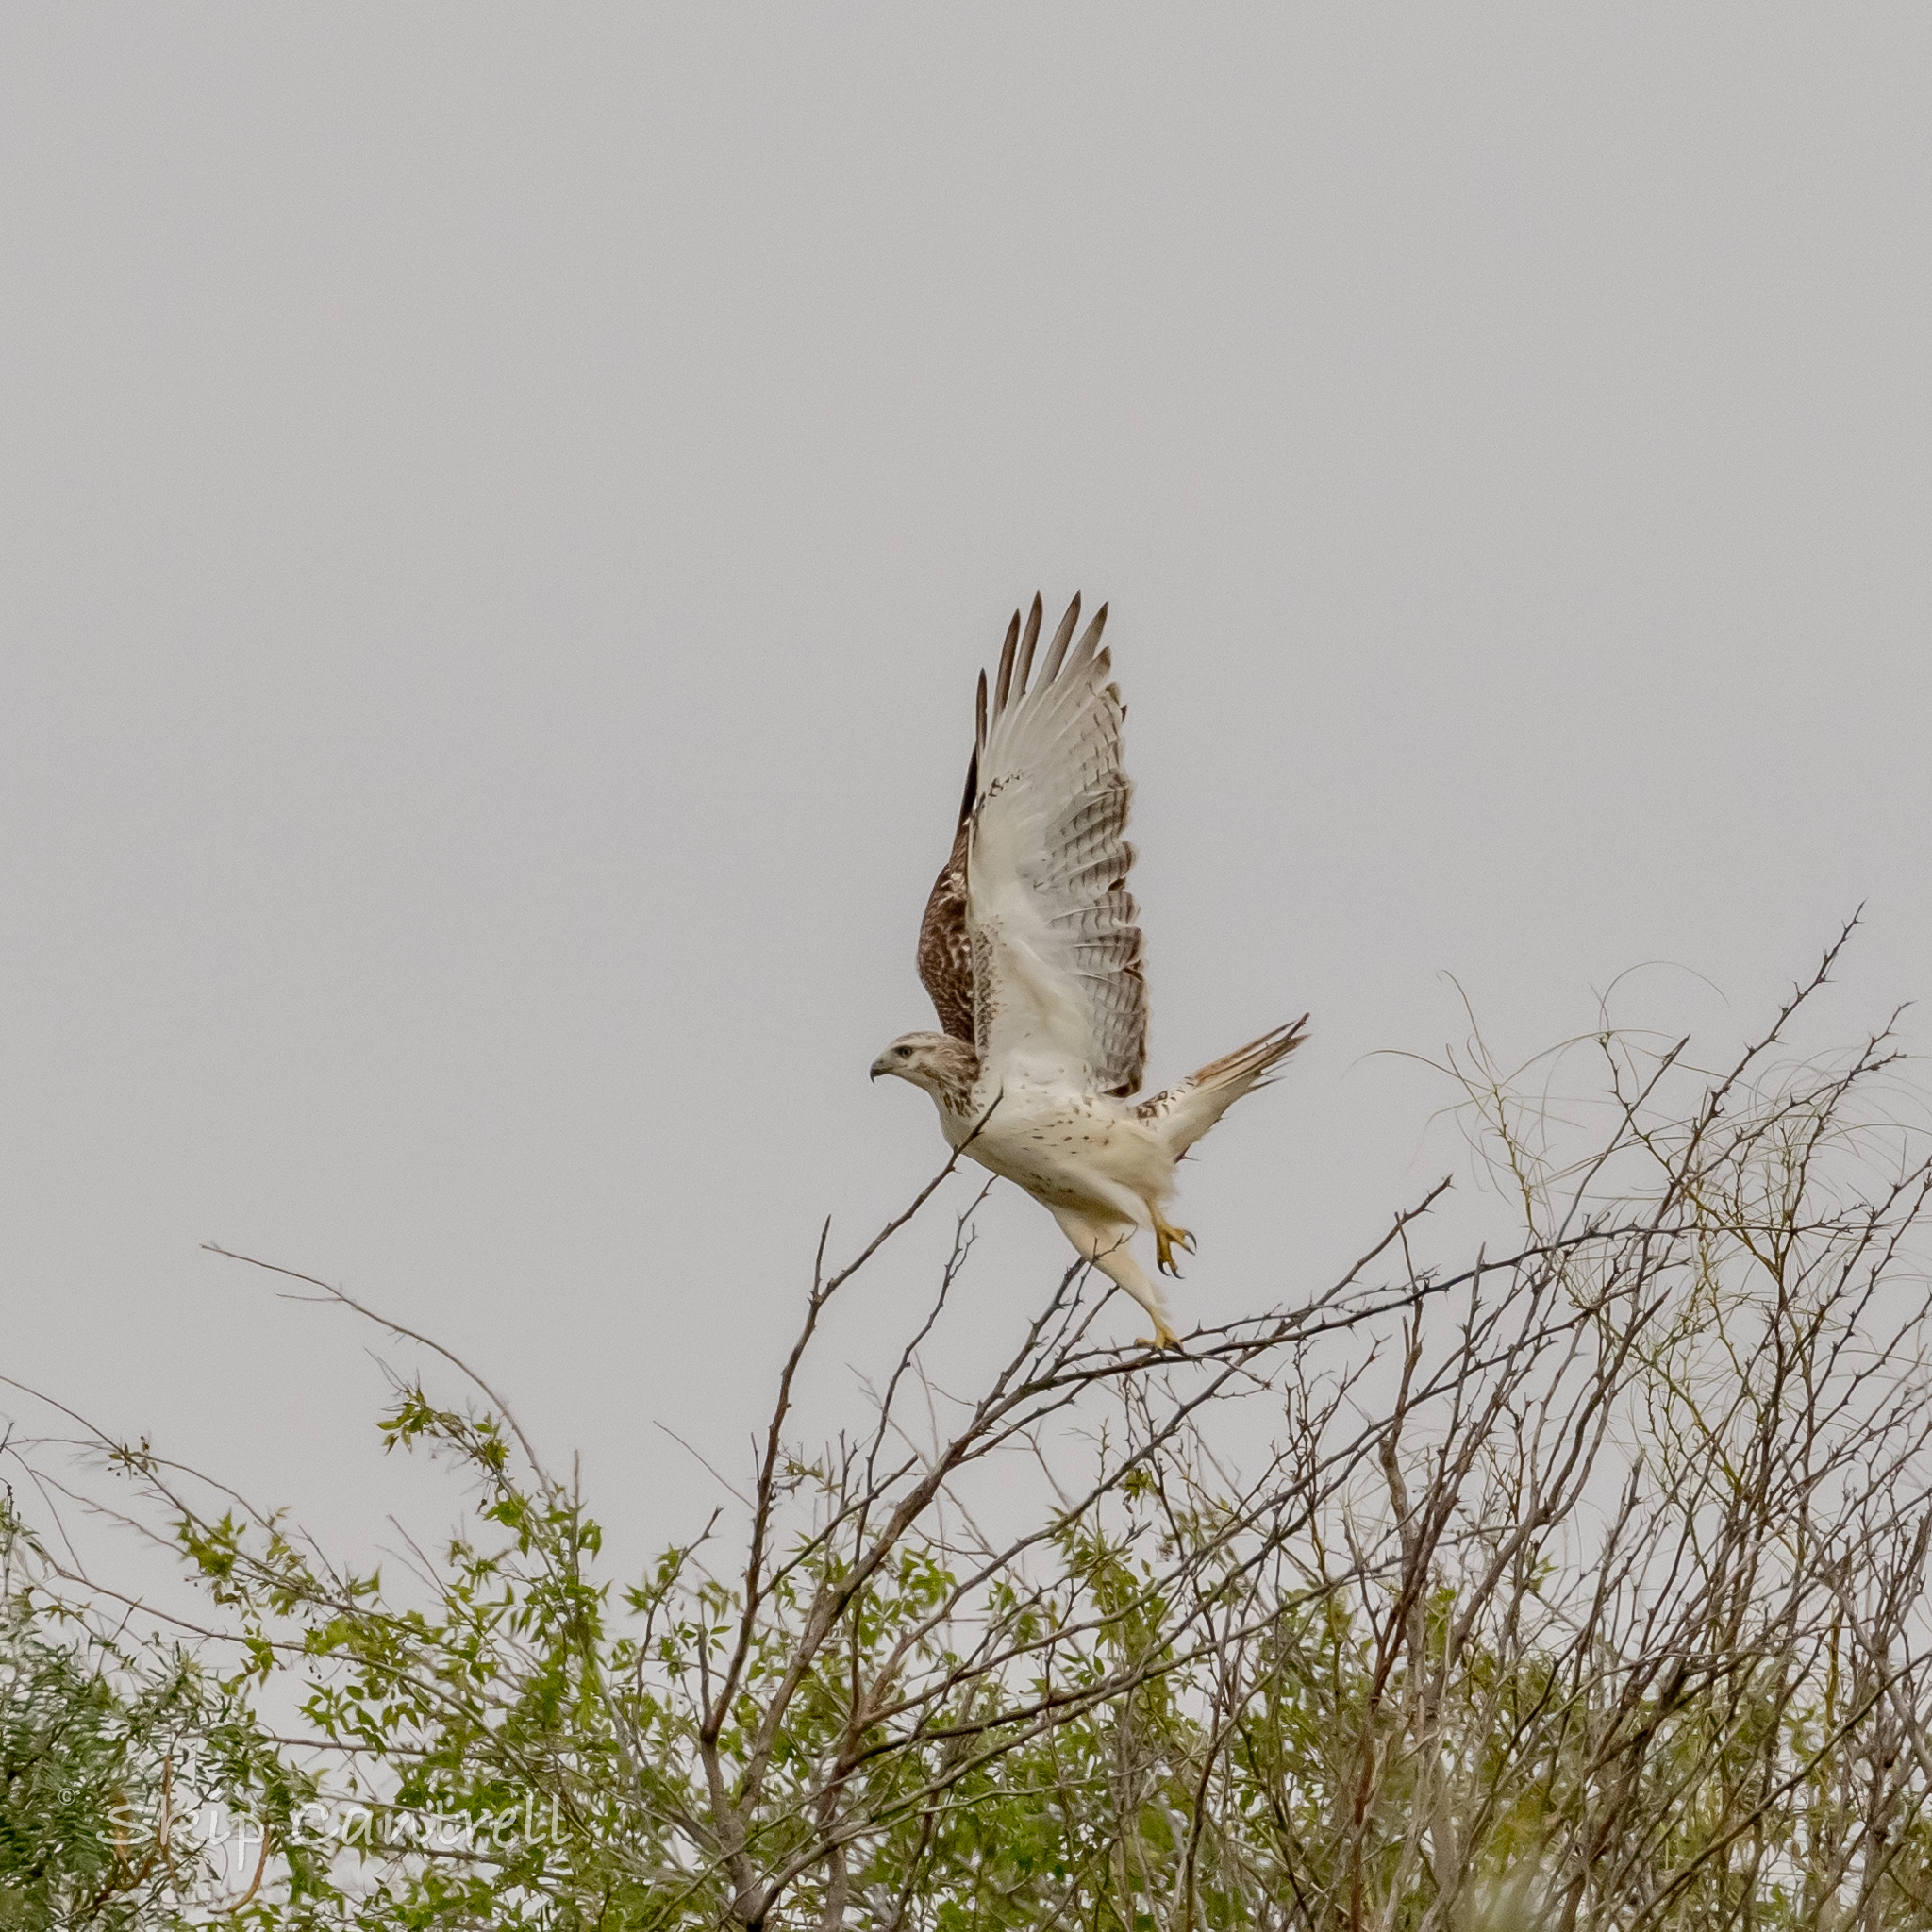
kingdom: Animalia
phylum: Chordata
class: Aves
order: Accipitriformes
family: Accipitridae
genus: Buteo
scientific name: Buteo jamaicensis
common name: Red-tailed hawk
